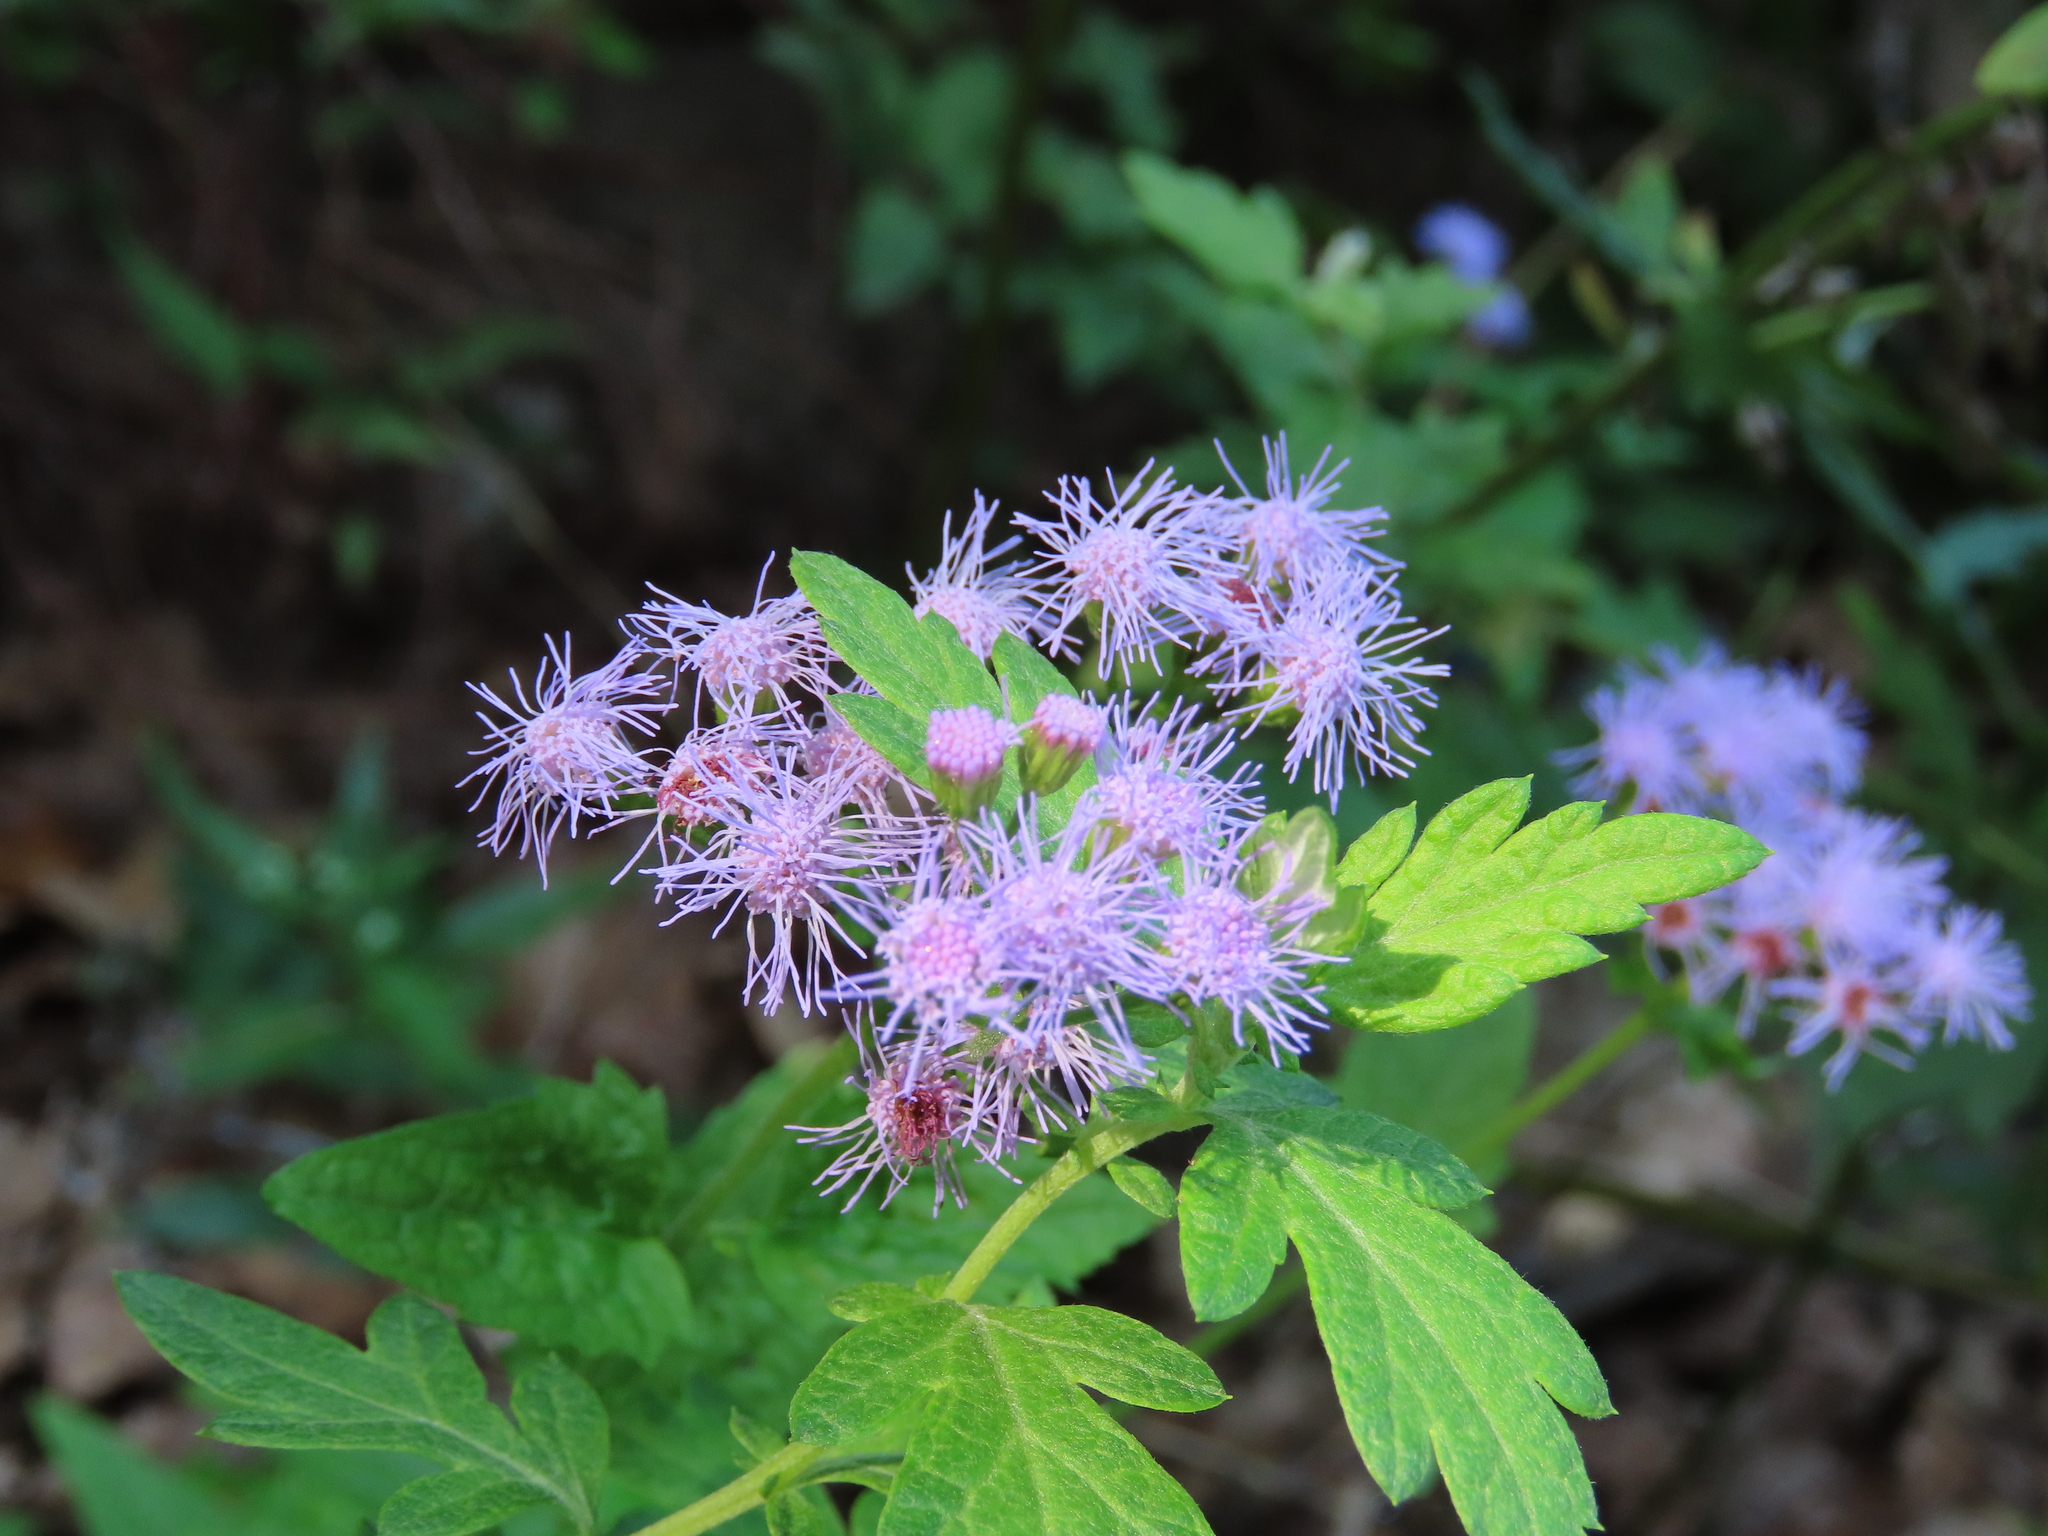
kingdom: Plantae
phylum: Tracheophyta
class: Magnoliopsida
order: Asterales
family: Asteraceae
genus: Conoclinium
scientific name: Conoclinium coelestinum
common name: Blue mistflower
